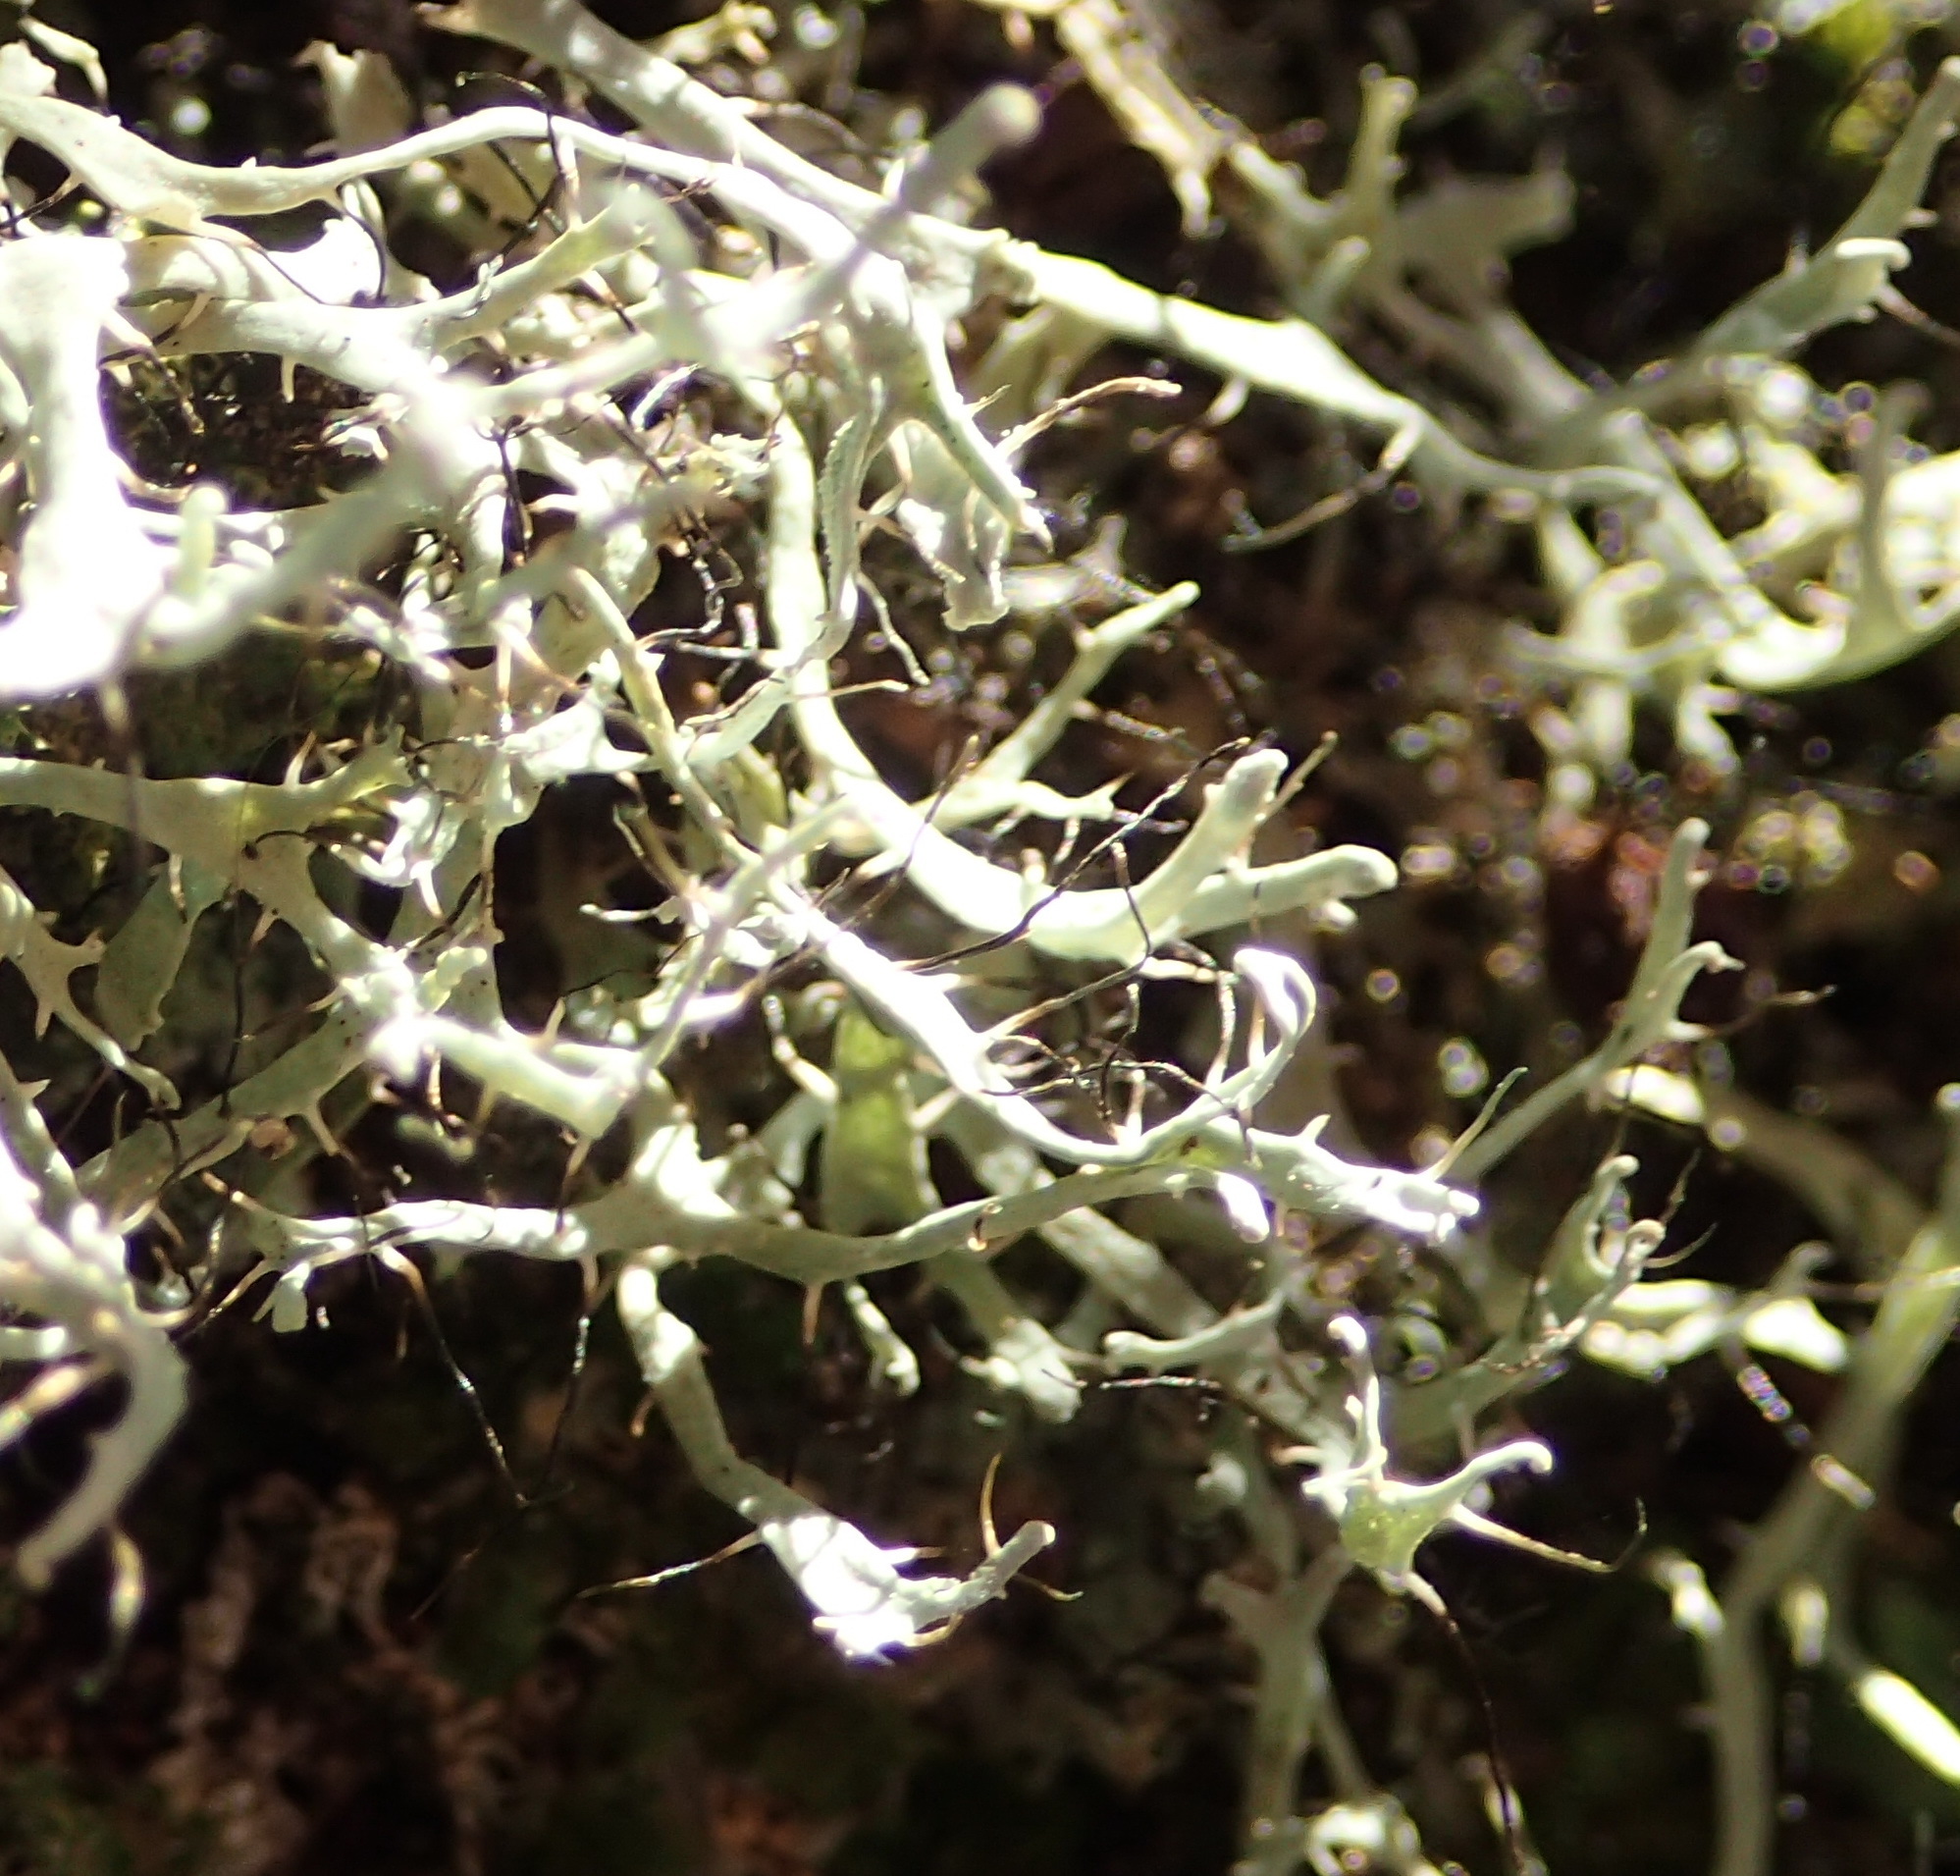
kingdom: Fungi
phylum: Ascomycota
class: Lecanoromycetes
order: Caliciales
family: Physciaceae
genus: Leucodermia
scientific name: Leucodermia leucomelos
